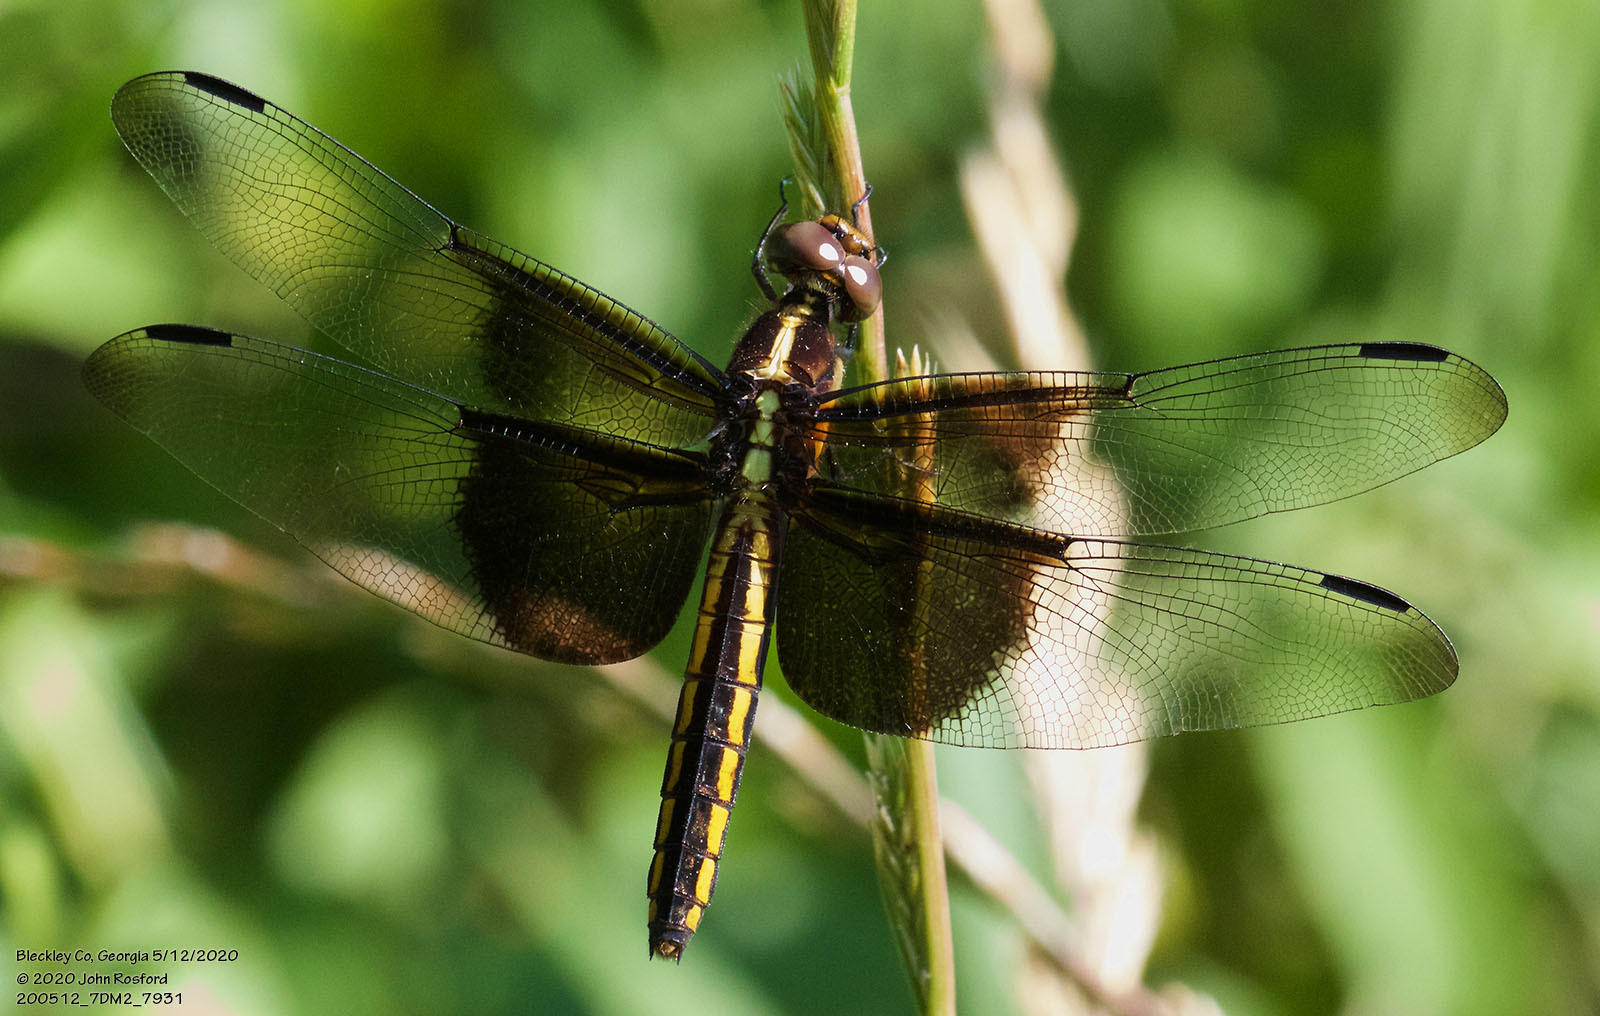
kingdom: Animalia
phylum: Arthropoda
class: Insecta
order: Odonata
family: Libellulidae
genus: Libellula
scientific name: Libellula luctuosa
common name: Widow skimmer
